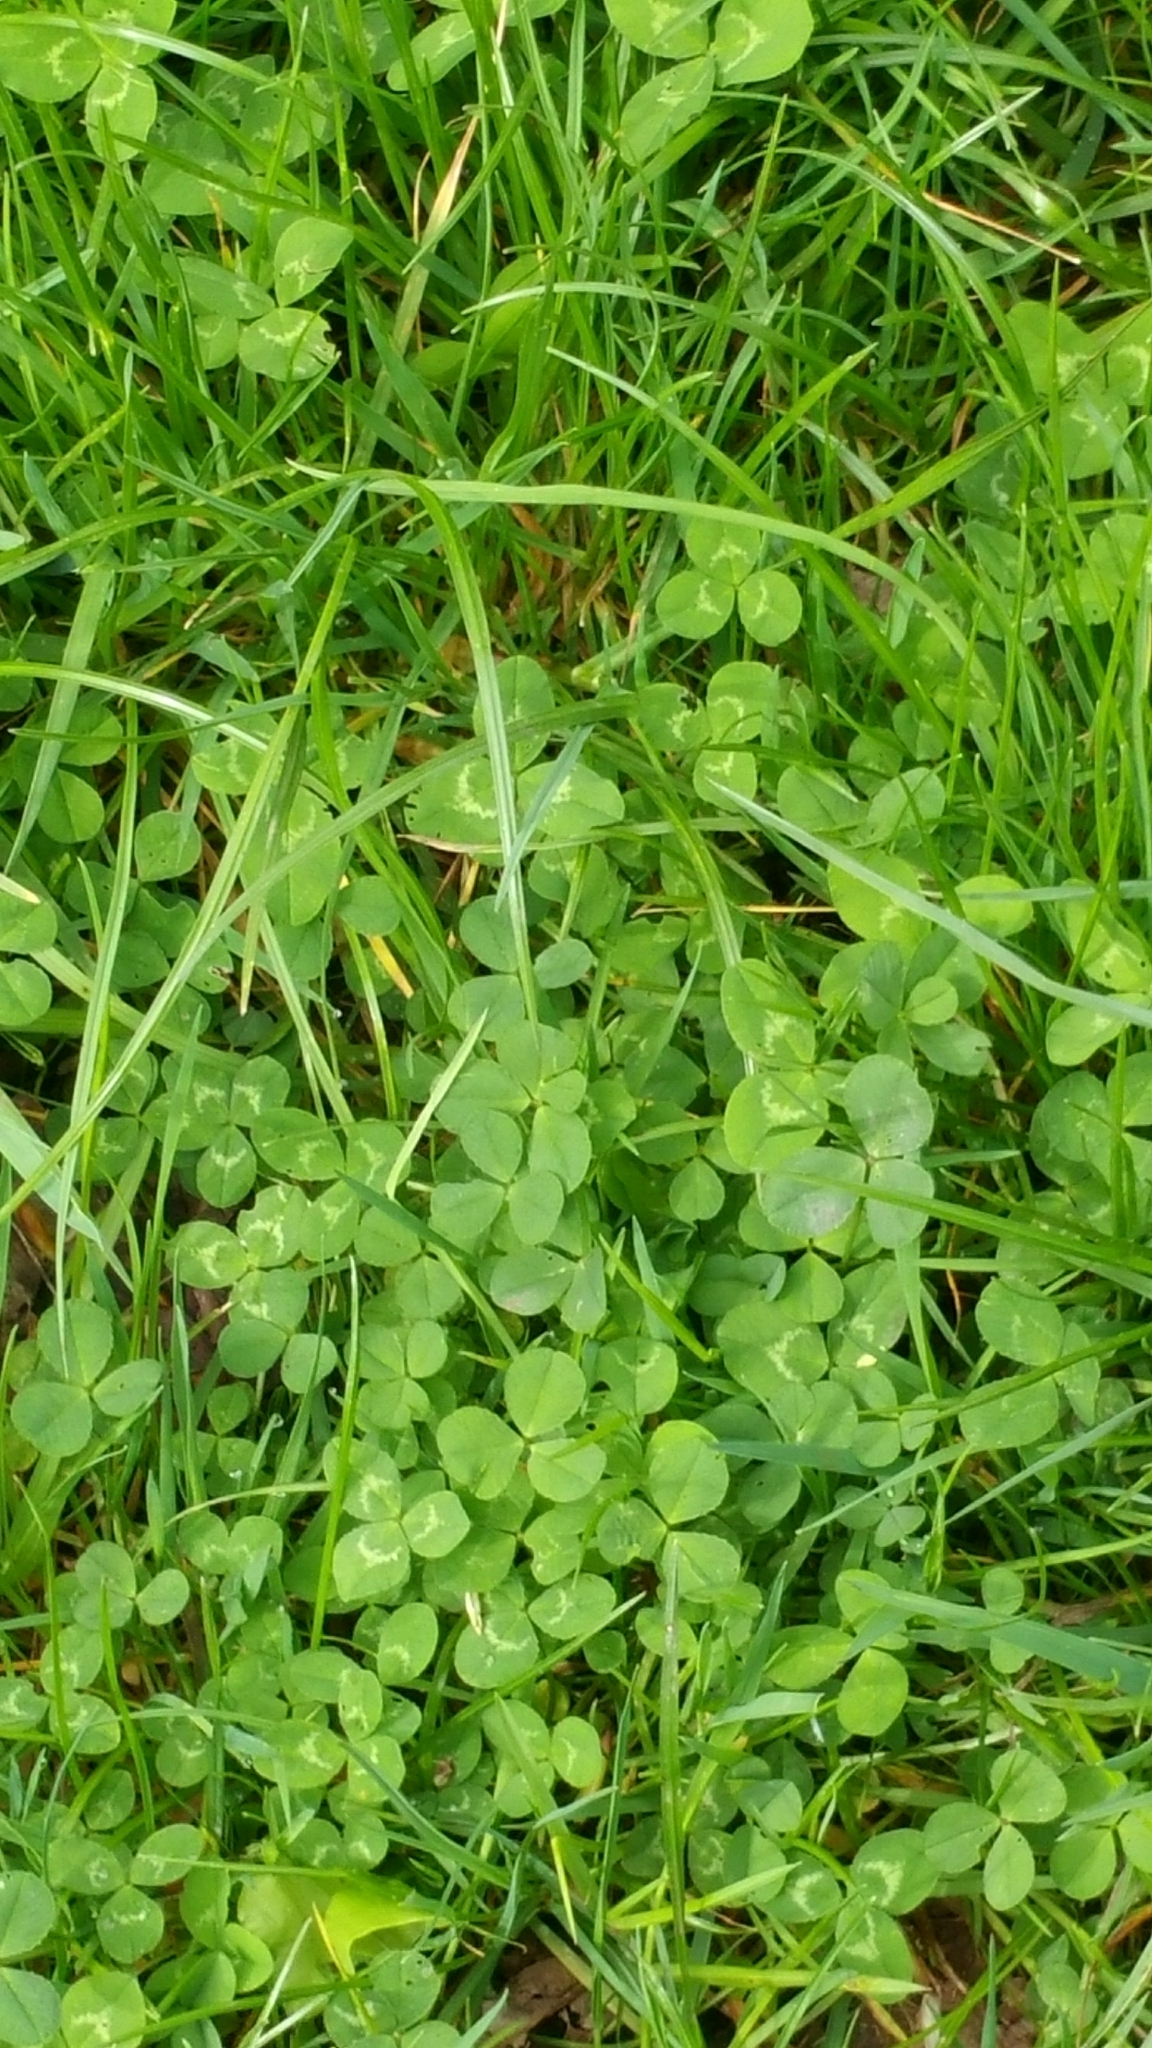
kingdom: Plantae
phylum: Tracheophyta
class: Magnoliopsida
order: Fabales
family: Fabaceae
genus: Trifolium
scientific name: Trifolium repens
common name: White clover
